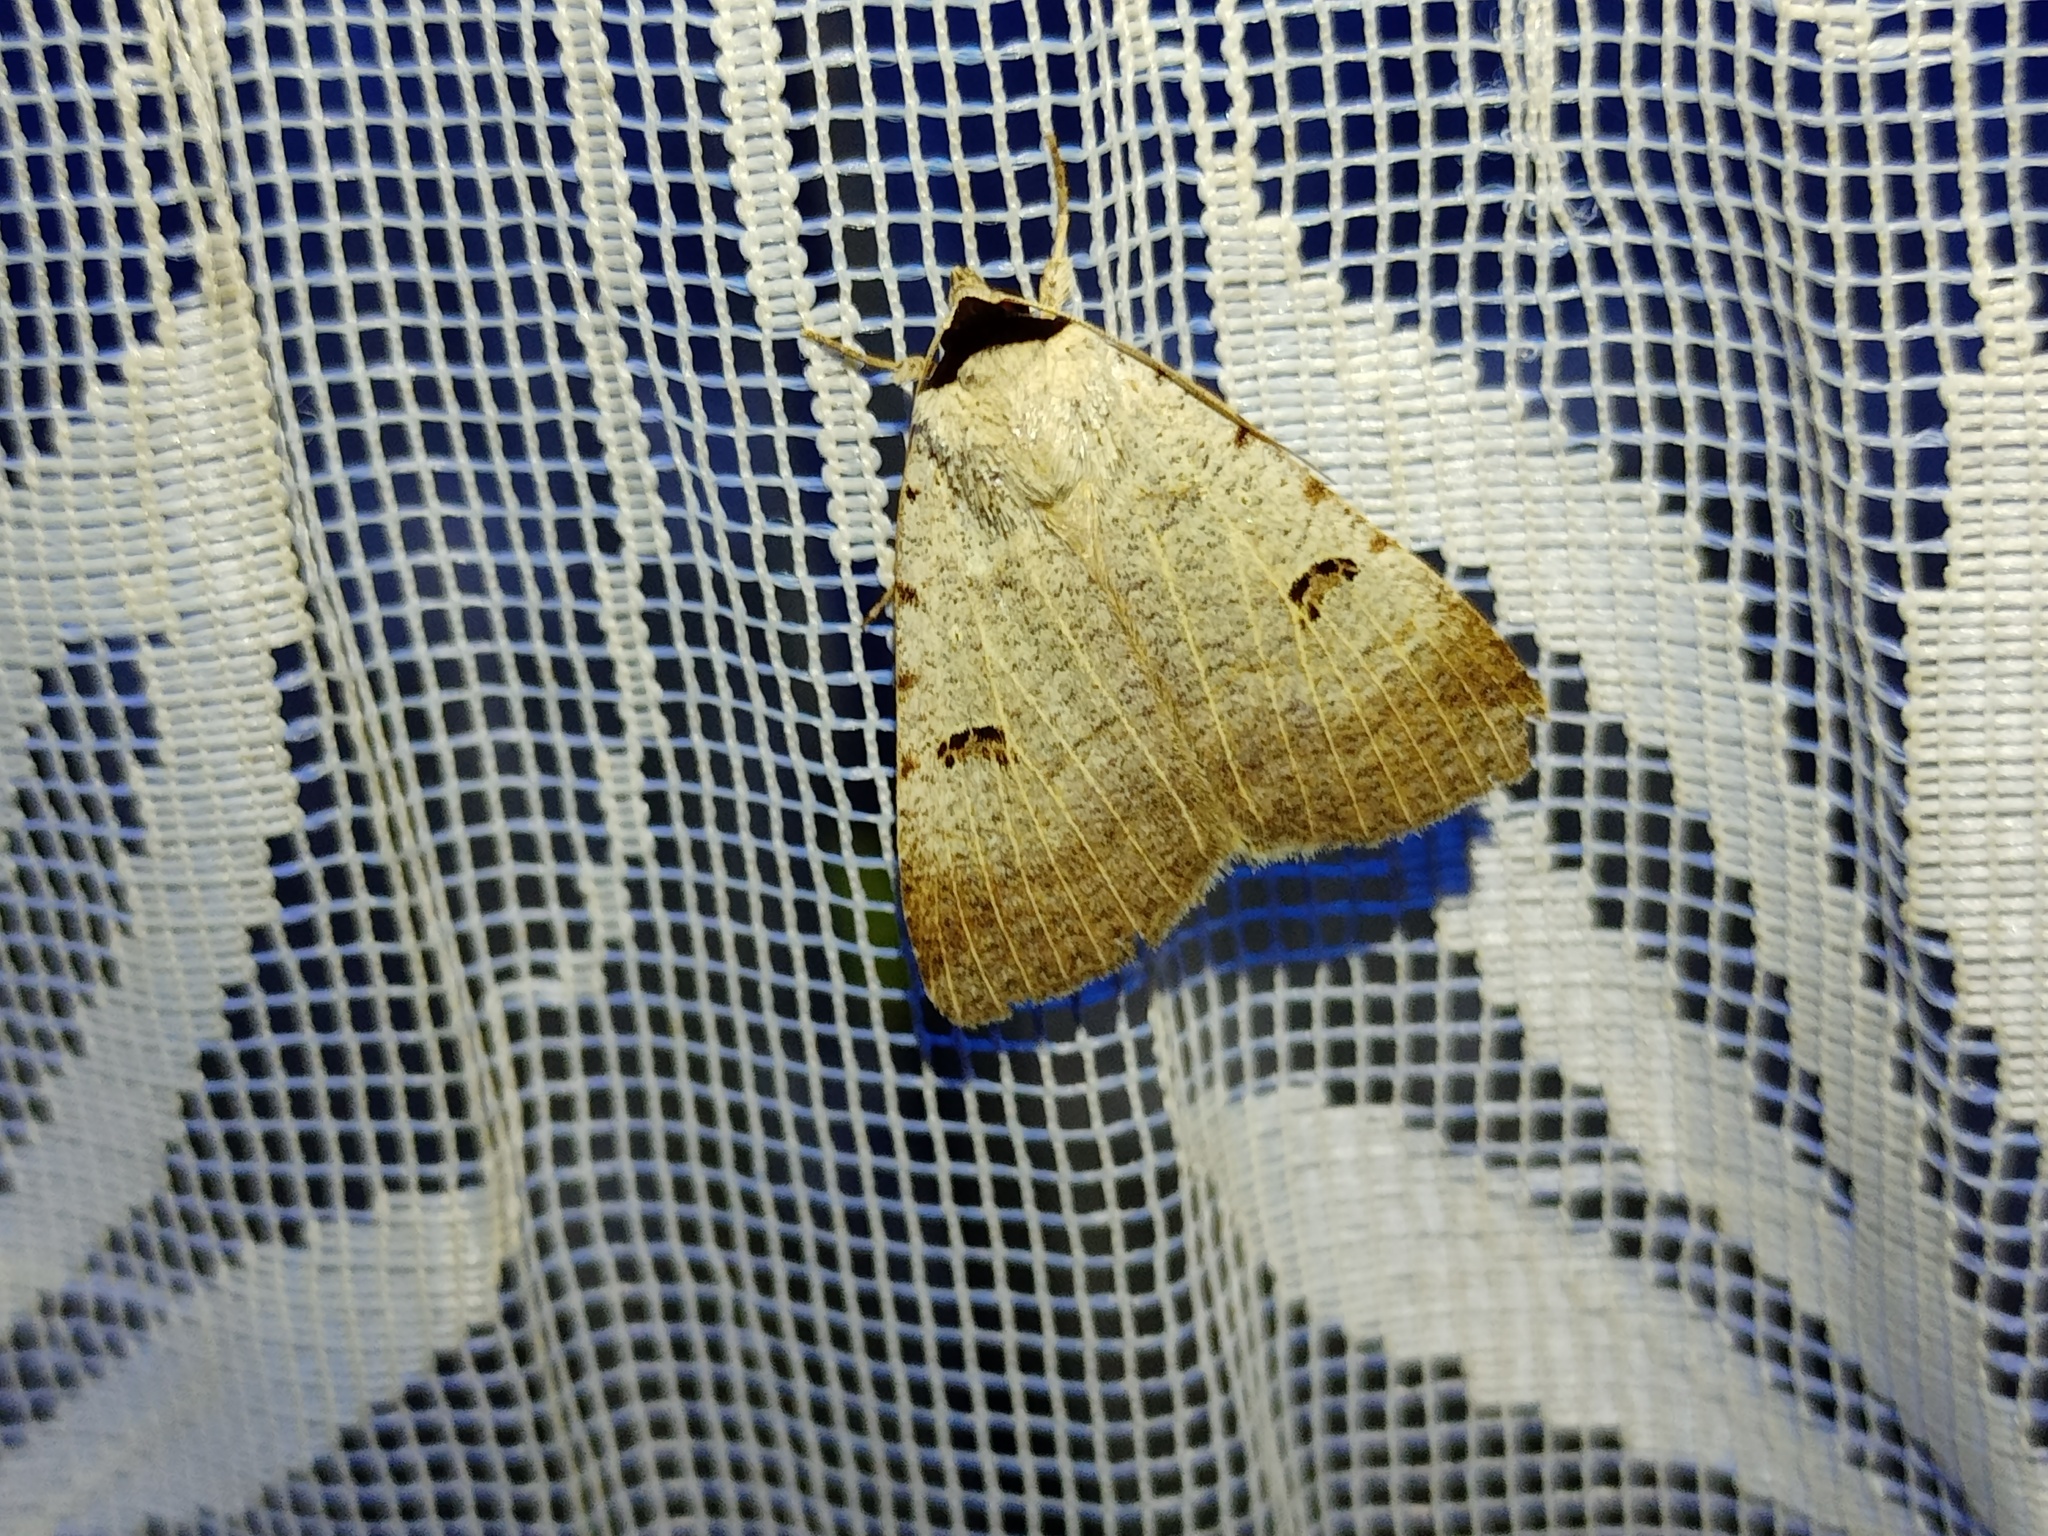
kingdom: Animalia
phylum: Arthropoda
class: Insecta
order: Lepidoptera
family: Erebidae
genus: Lygephila
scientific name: Lygephila craccae
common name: Scarce blackneck
